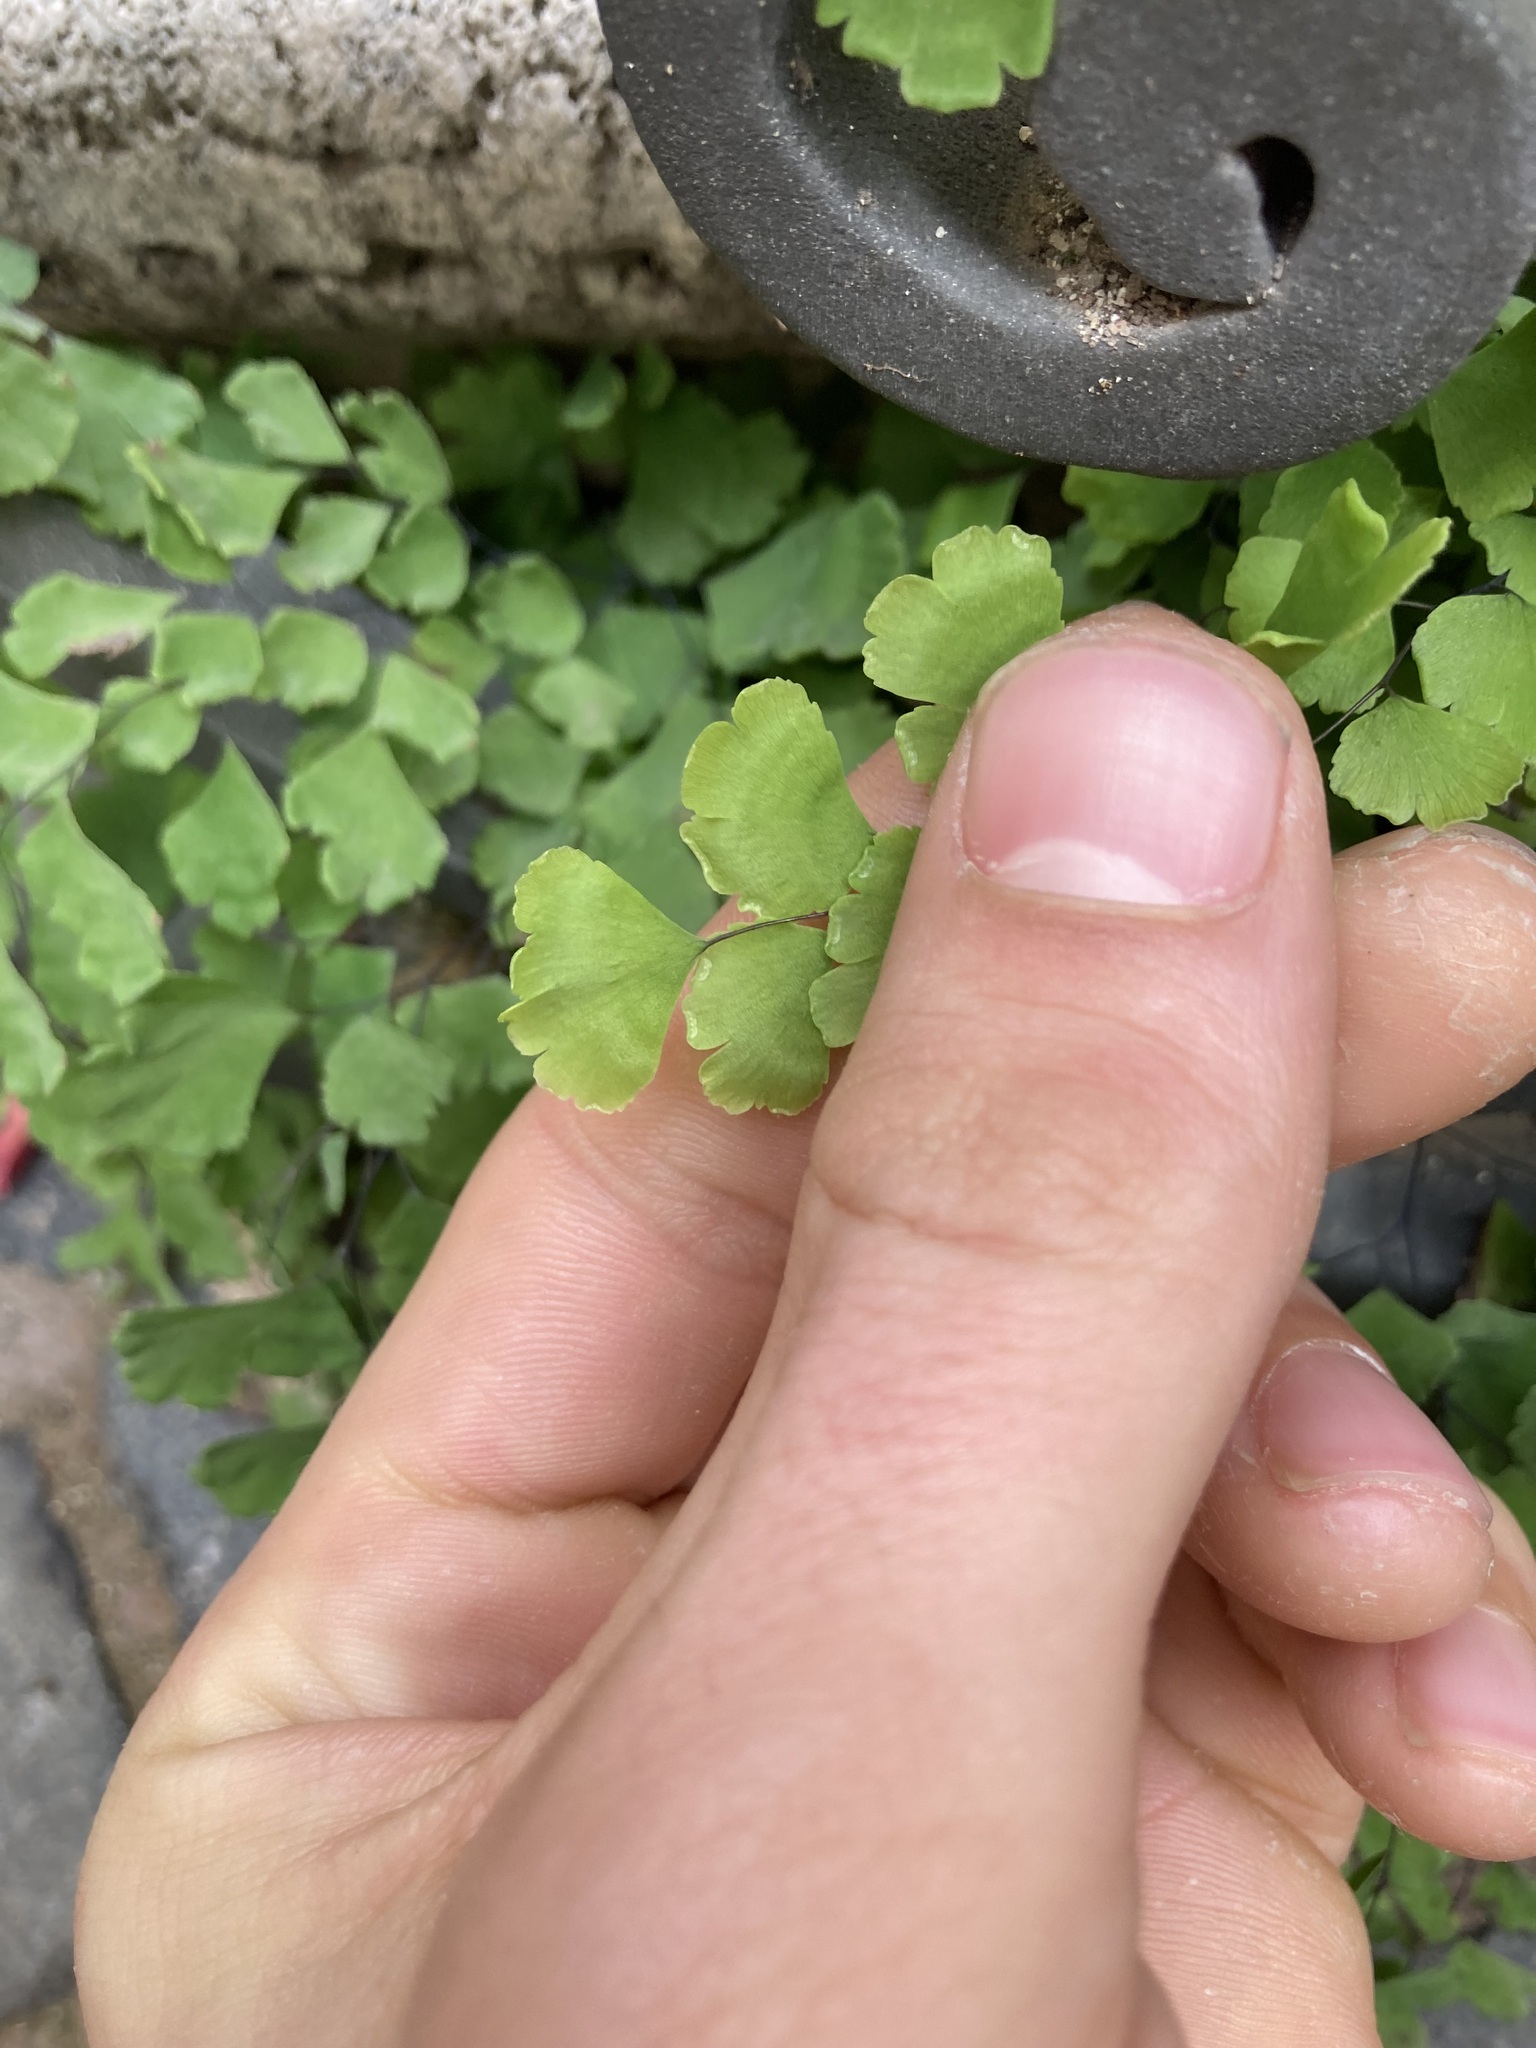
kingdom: Plantae
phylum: Tracheophyta
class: Polypodiopsida
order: Polypodiales
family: Pteridaceae
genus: Adiantum
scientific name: Adiantum capillus-veneris
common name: Maidenhair fern
